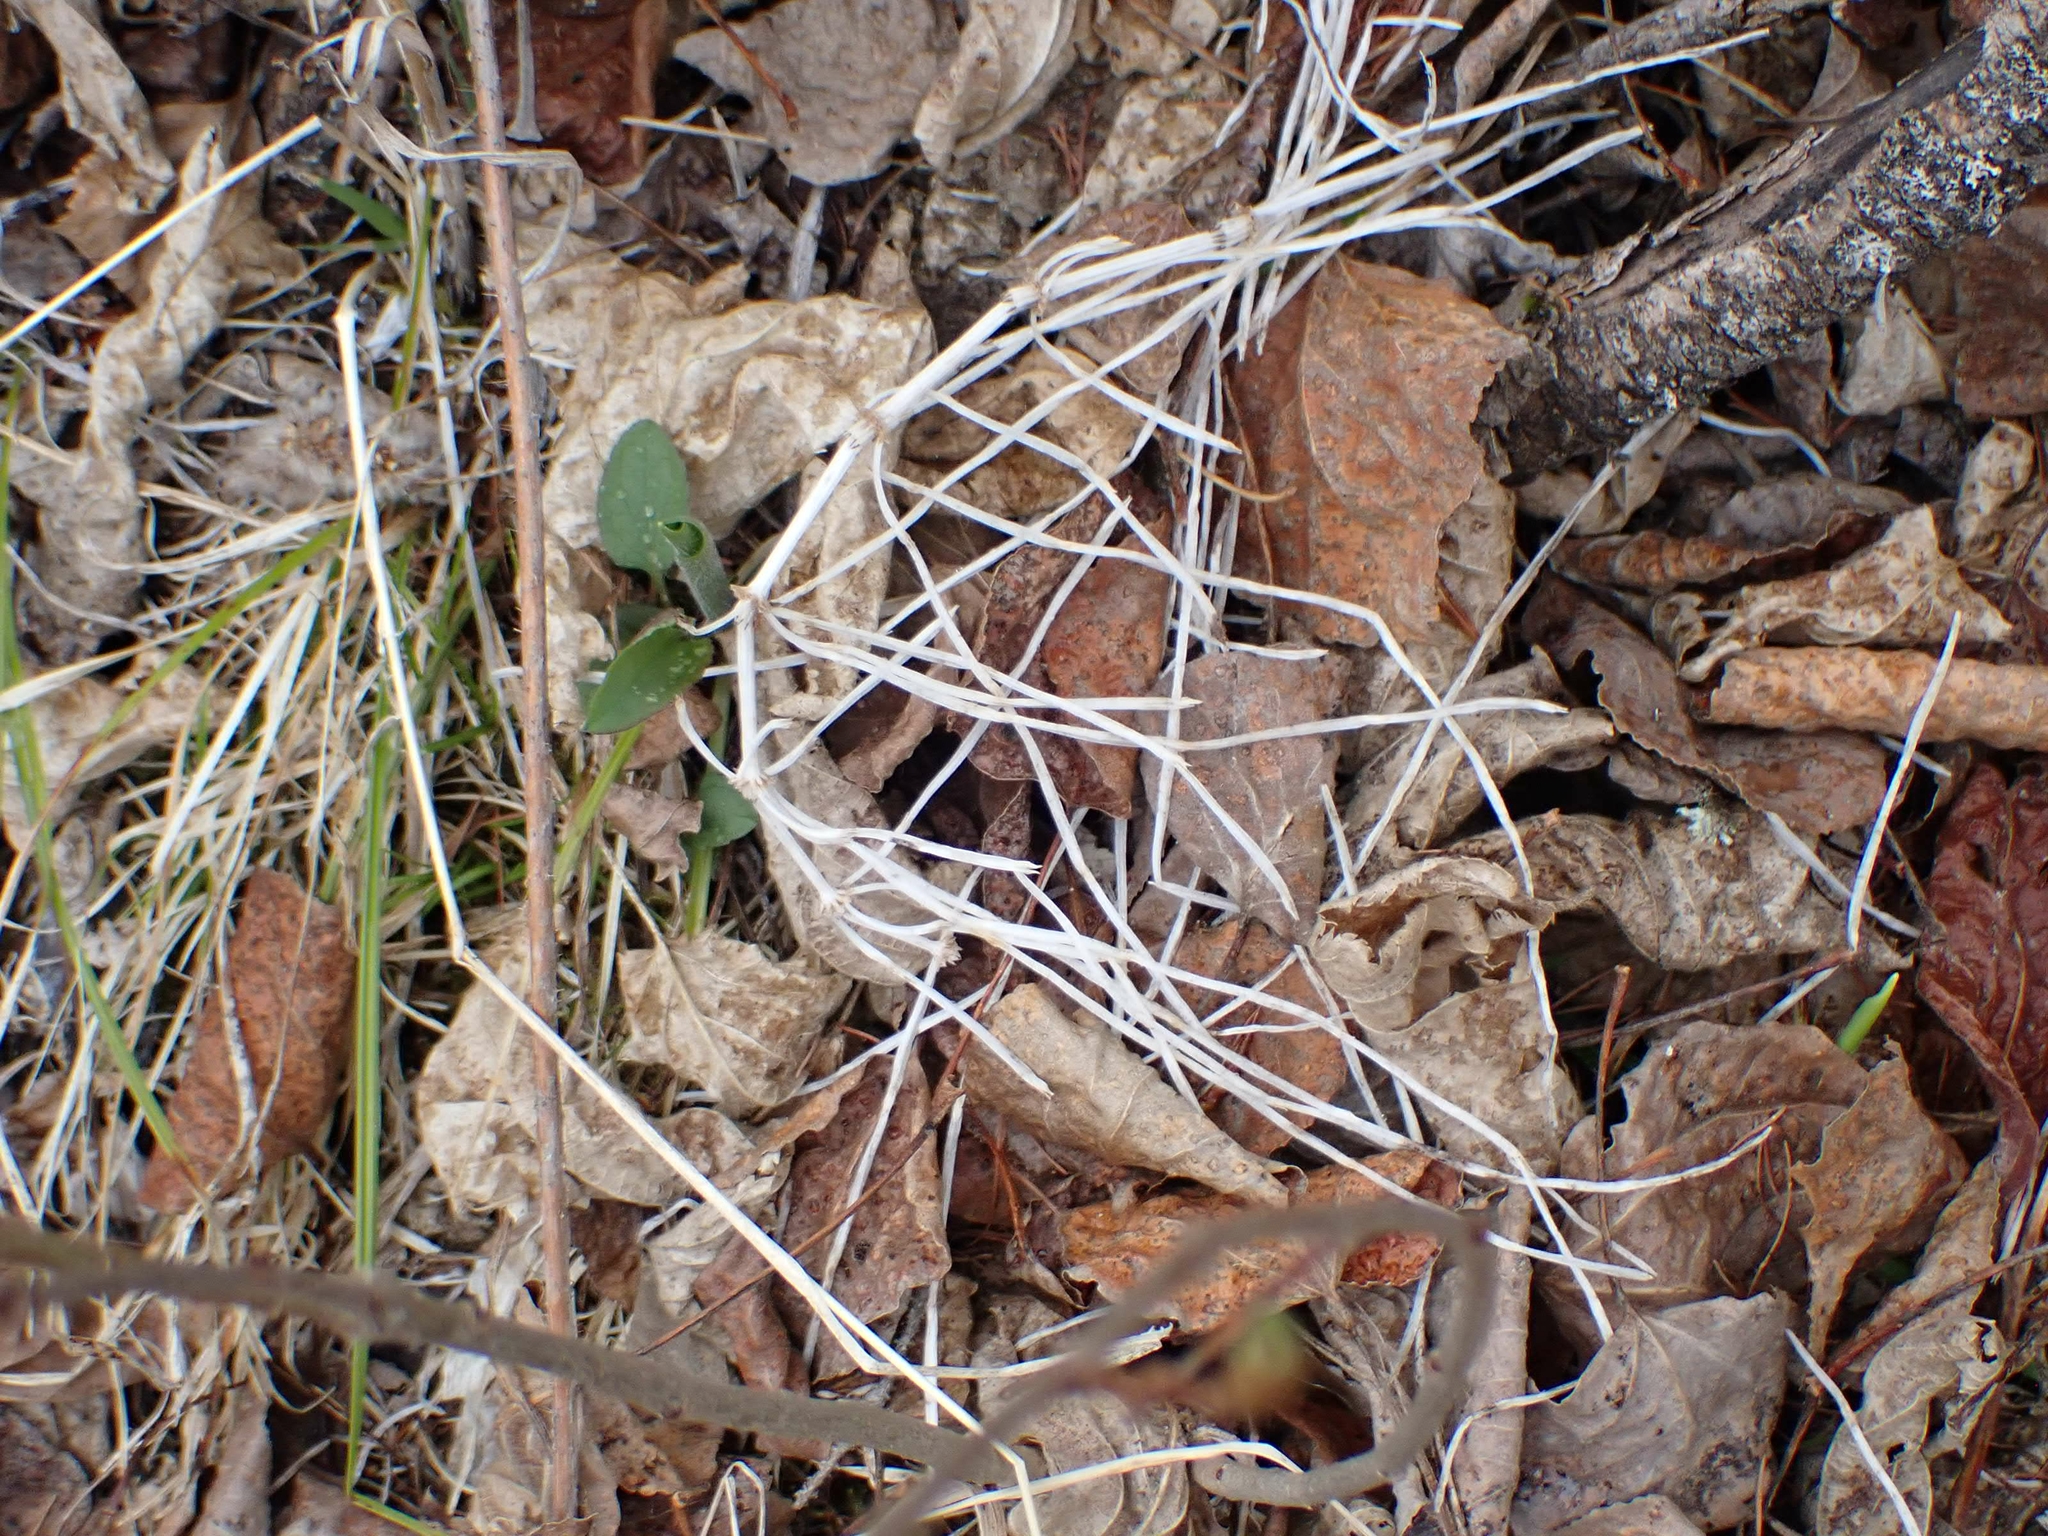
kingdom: Plantae
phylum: Tracheophyta
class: Polypodiopsida
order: Equisetales
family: Equisetaceae
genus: Equisetum
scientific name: Equisetum arvense
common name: Field horsetail
